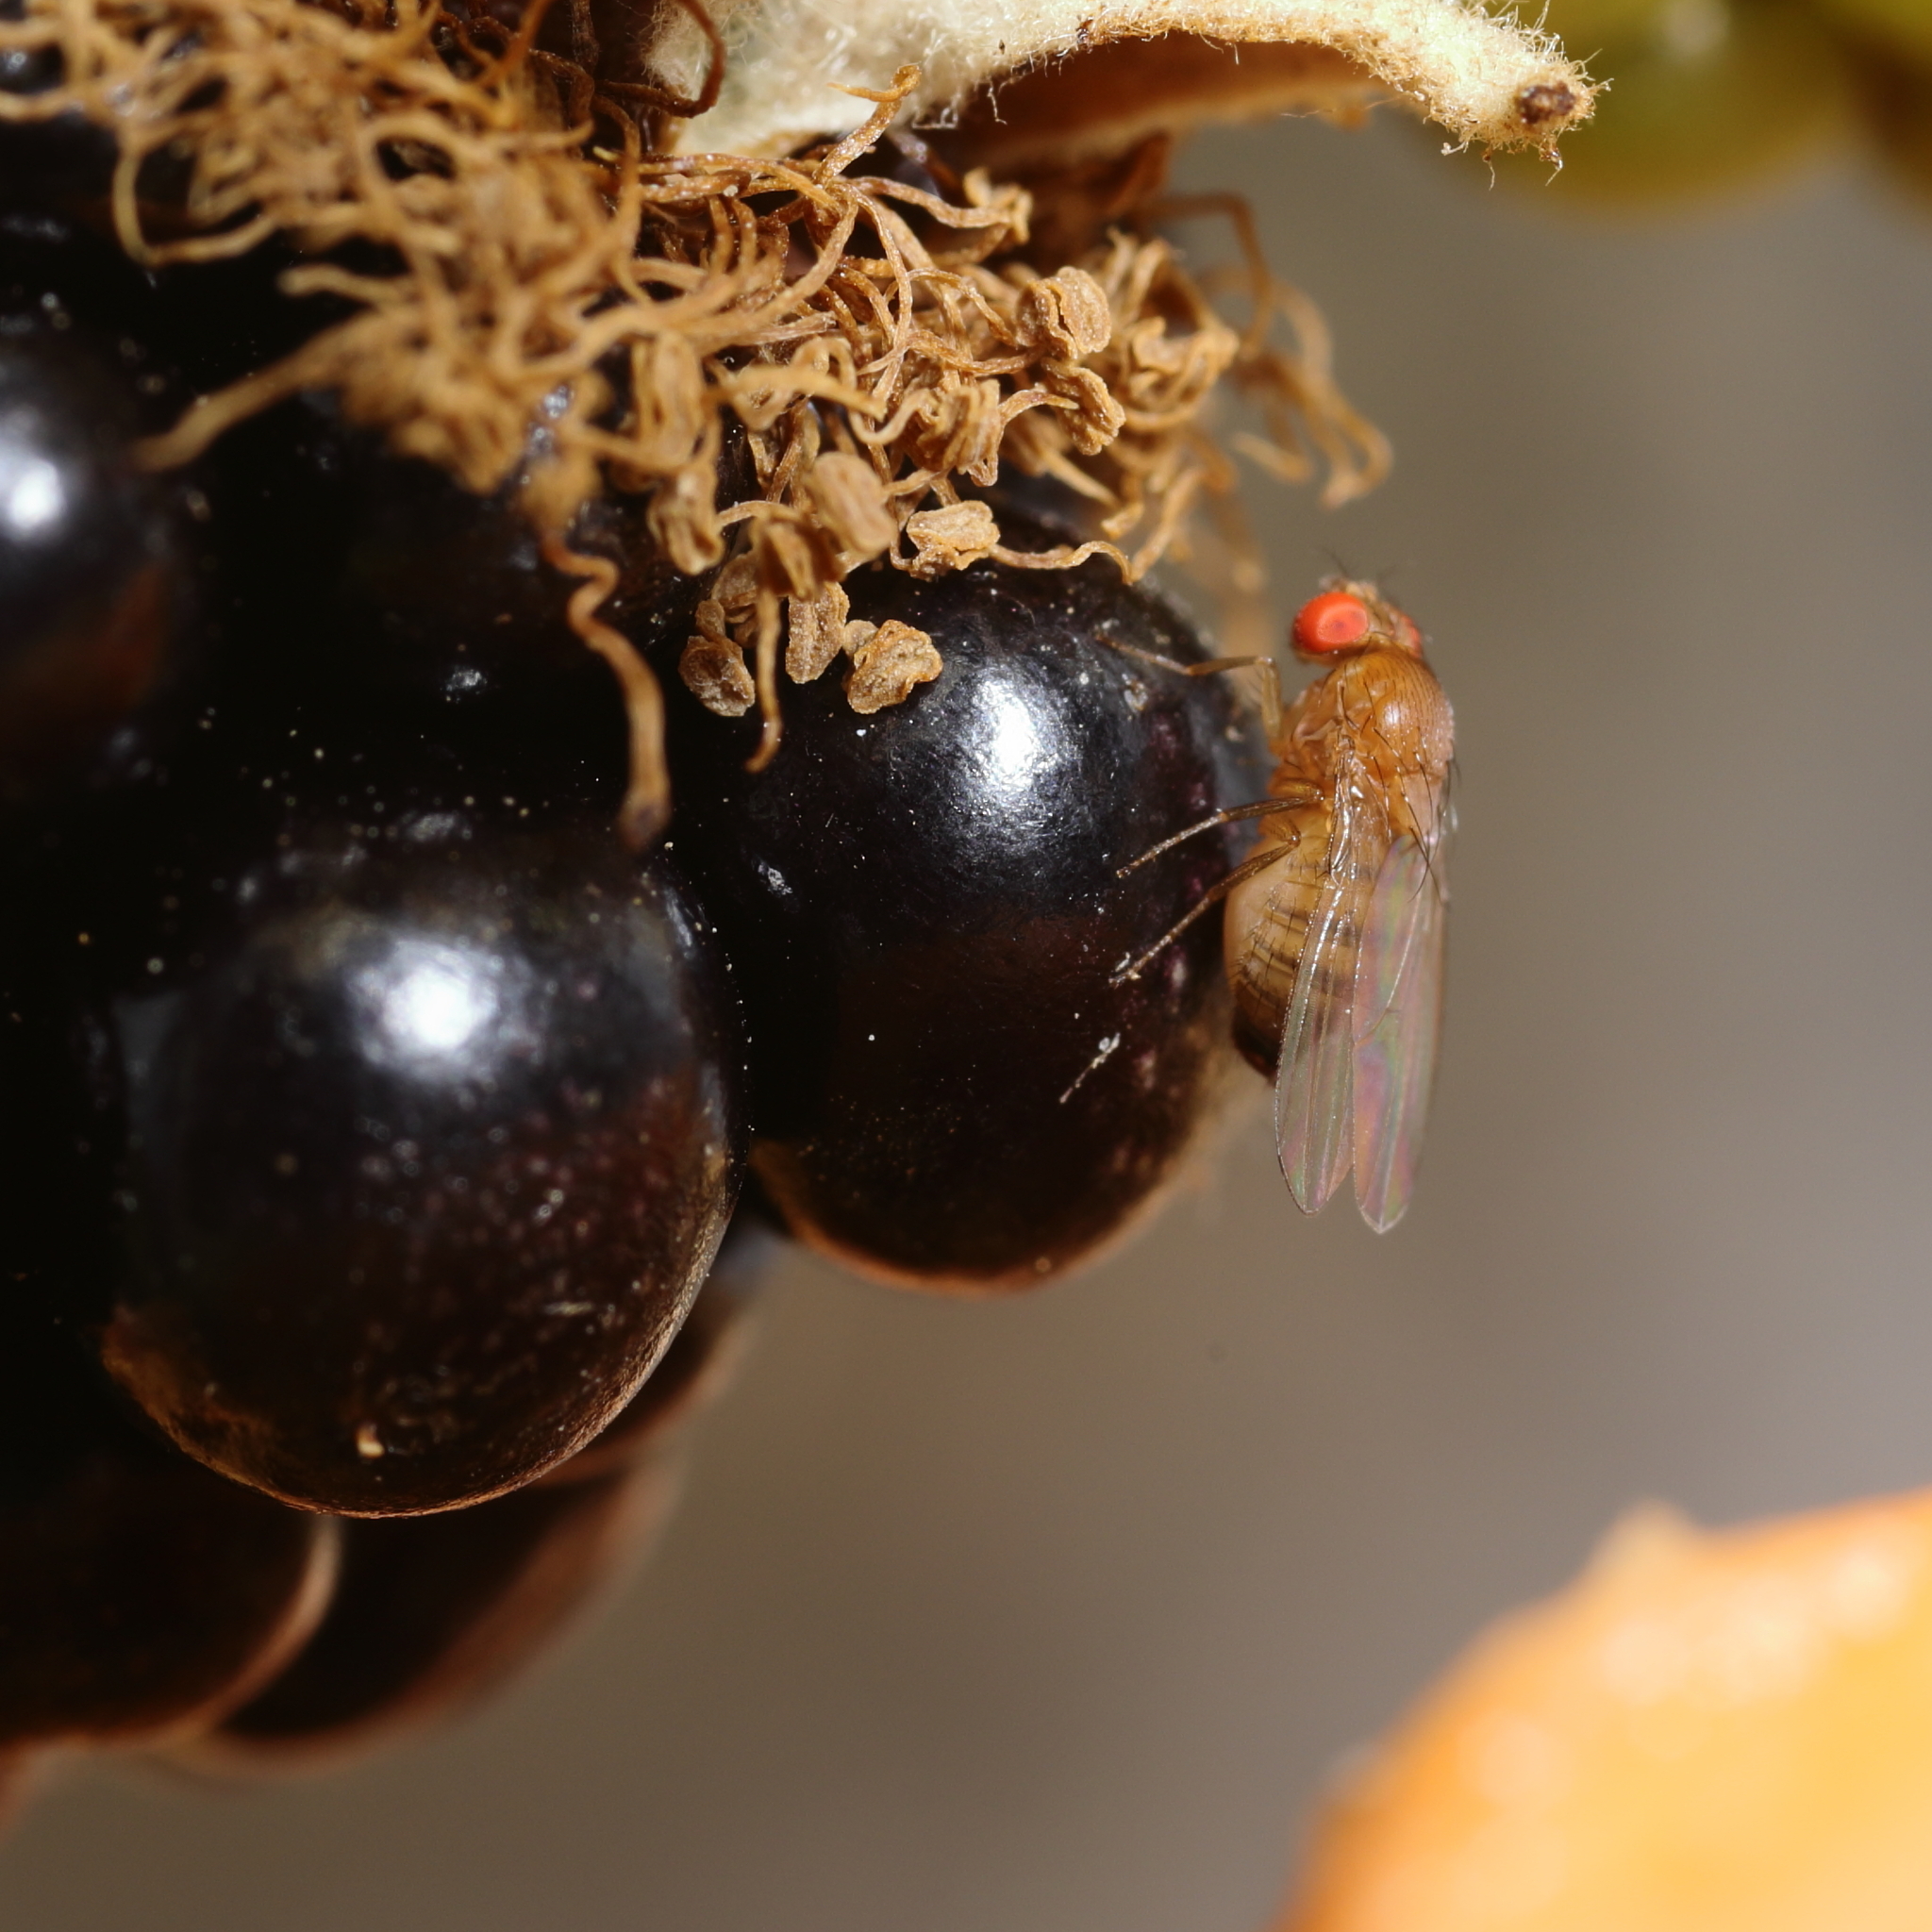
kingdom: Animalia
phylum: Arthropoda
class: Insecta
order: Diptera
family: Drosophilidae
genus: Drosophila
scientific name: Drosophila suzukii
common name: Spotted-wing drosophila
